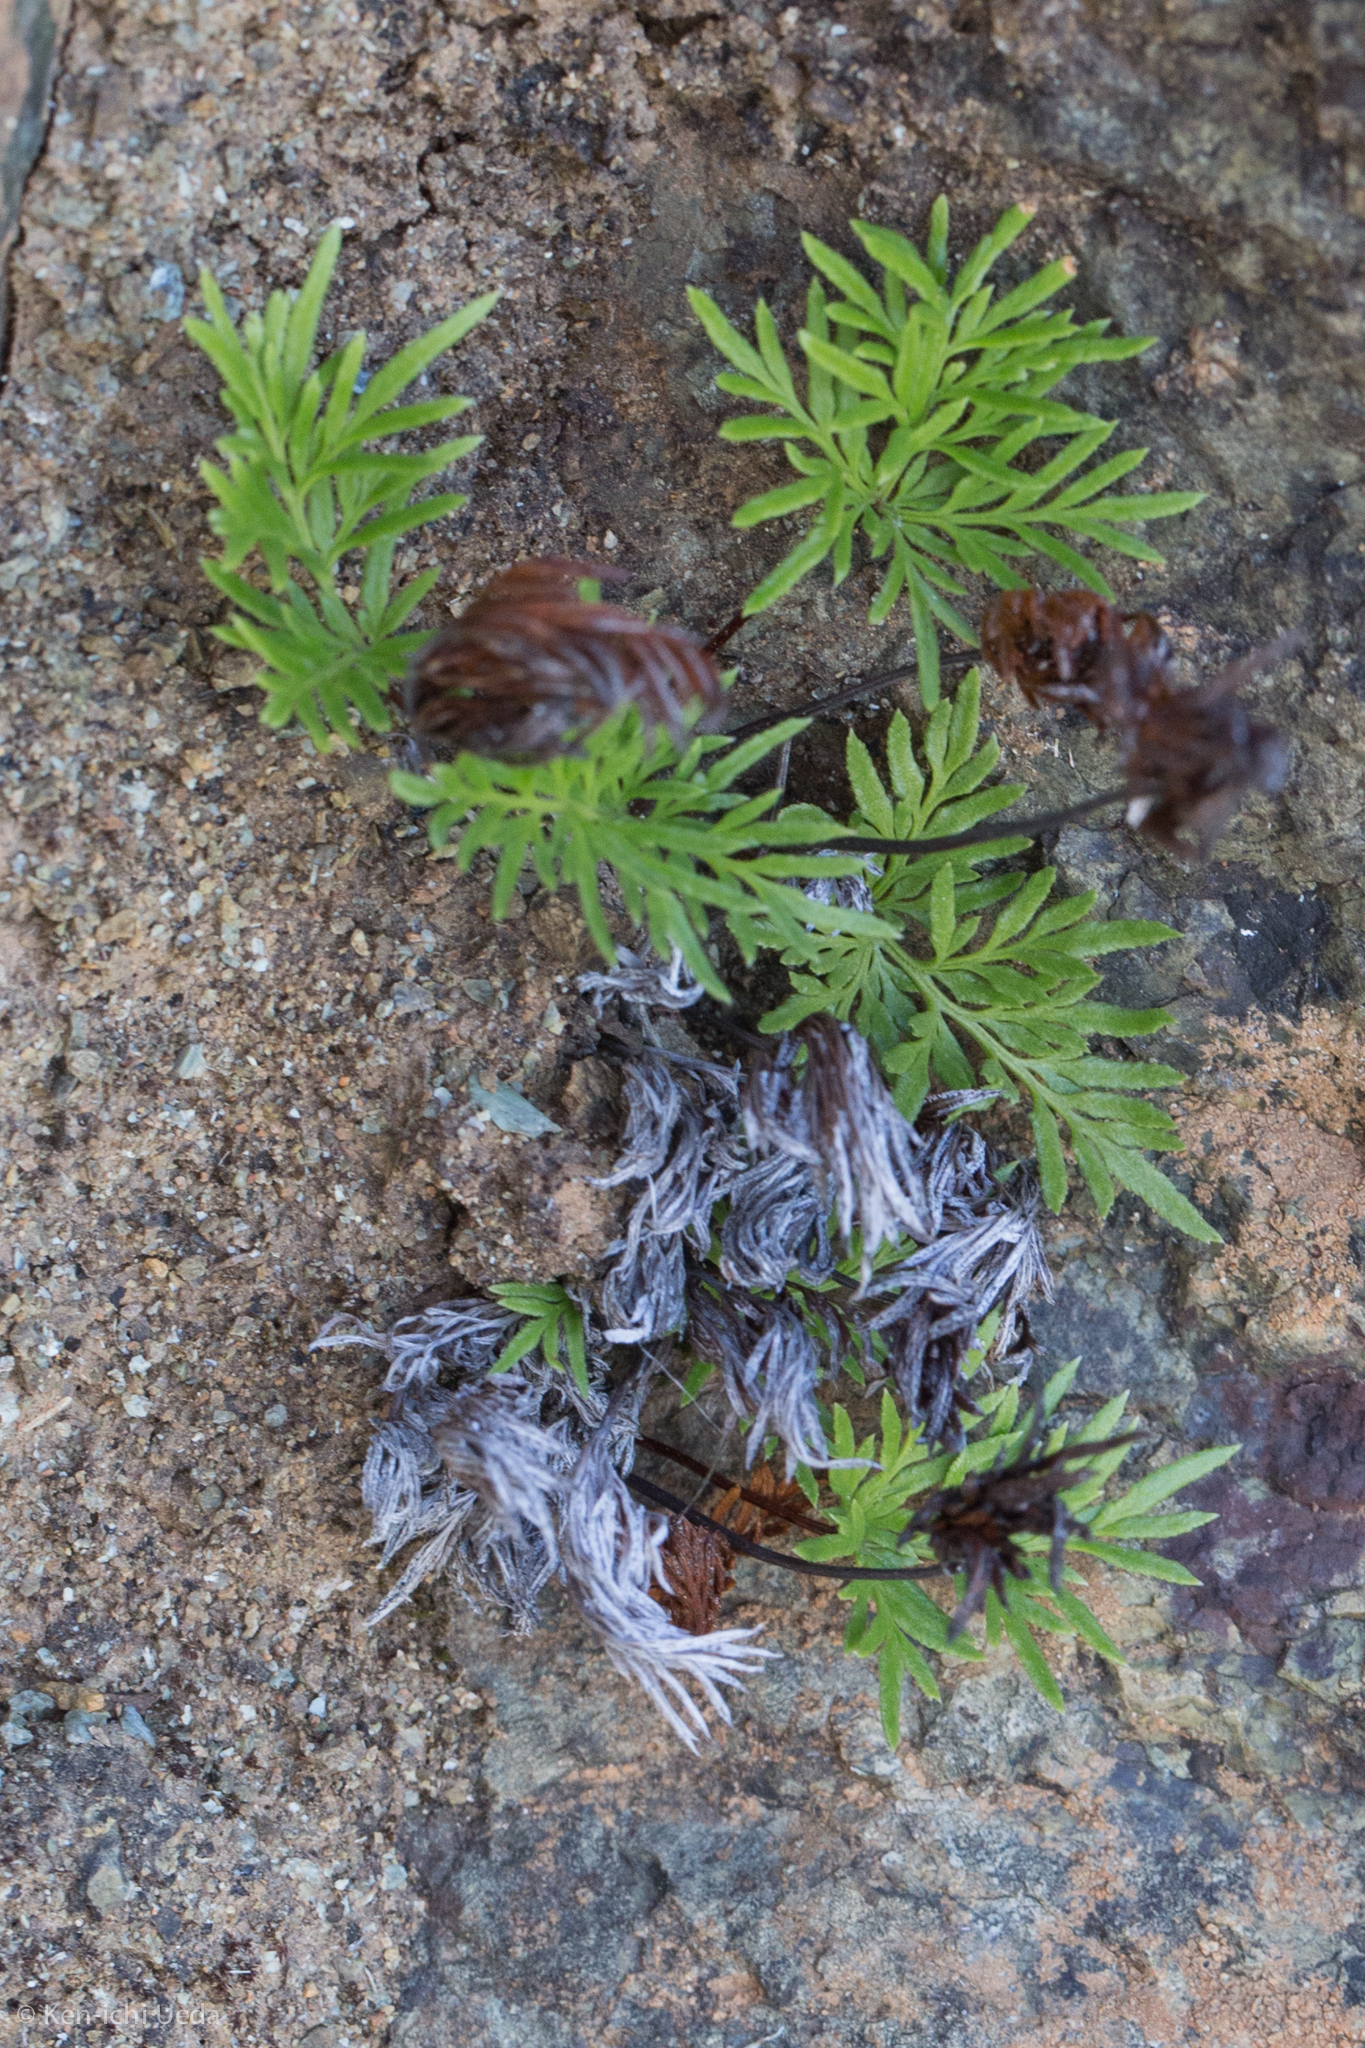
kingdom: Plantae
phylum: Tracheophyta
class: Polypodiopsida
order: Polypodiales
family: Pteridaceae
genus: Aspidotis
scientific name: Aspidotis densa
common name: Indian's dream
